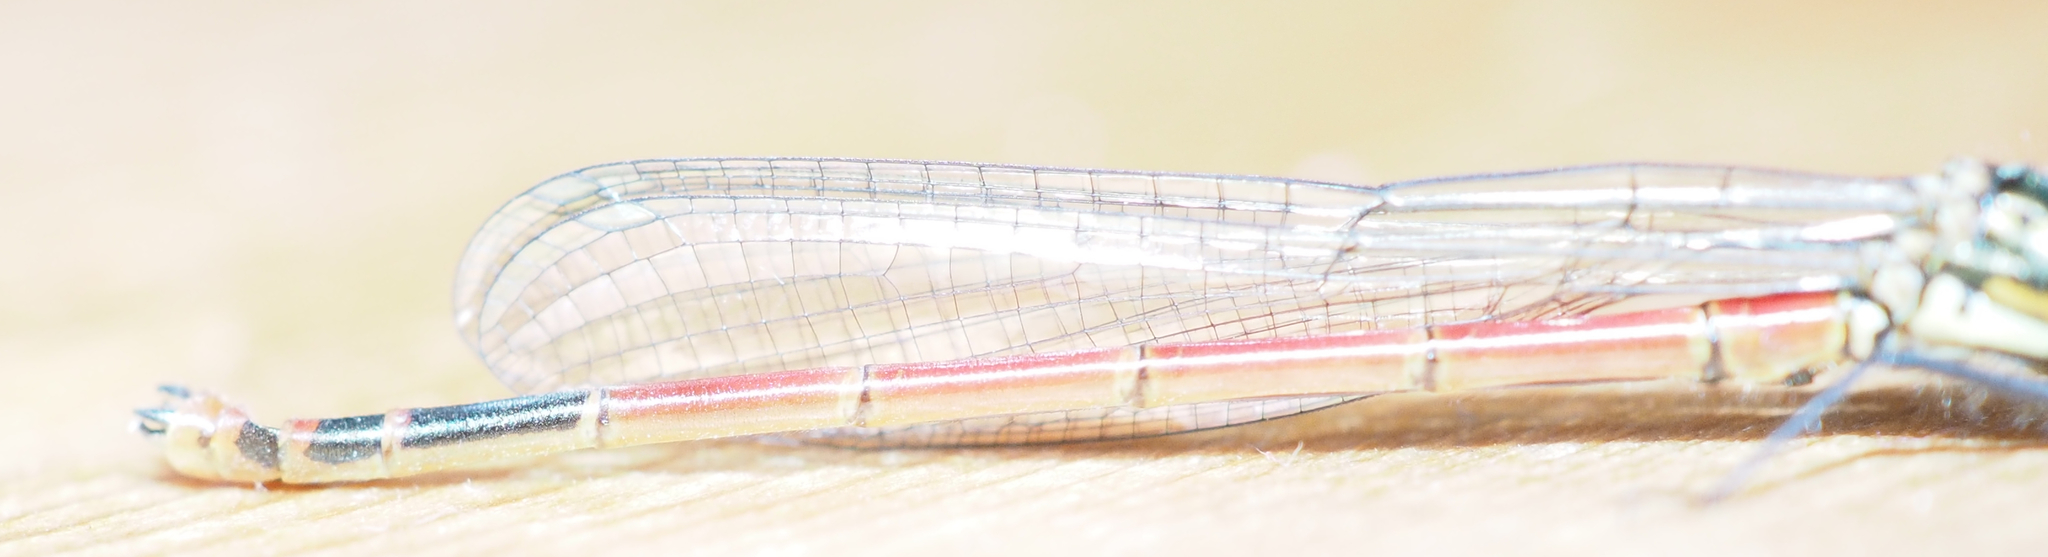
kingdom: Animalia
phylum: Arthropoda
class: Insecta
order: Odonata
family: Coenagrionidae
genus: Pyrrhosoma
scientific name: Pyrrhosoma nymphula
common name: Large red damsel
